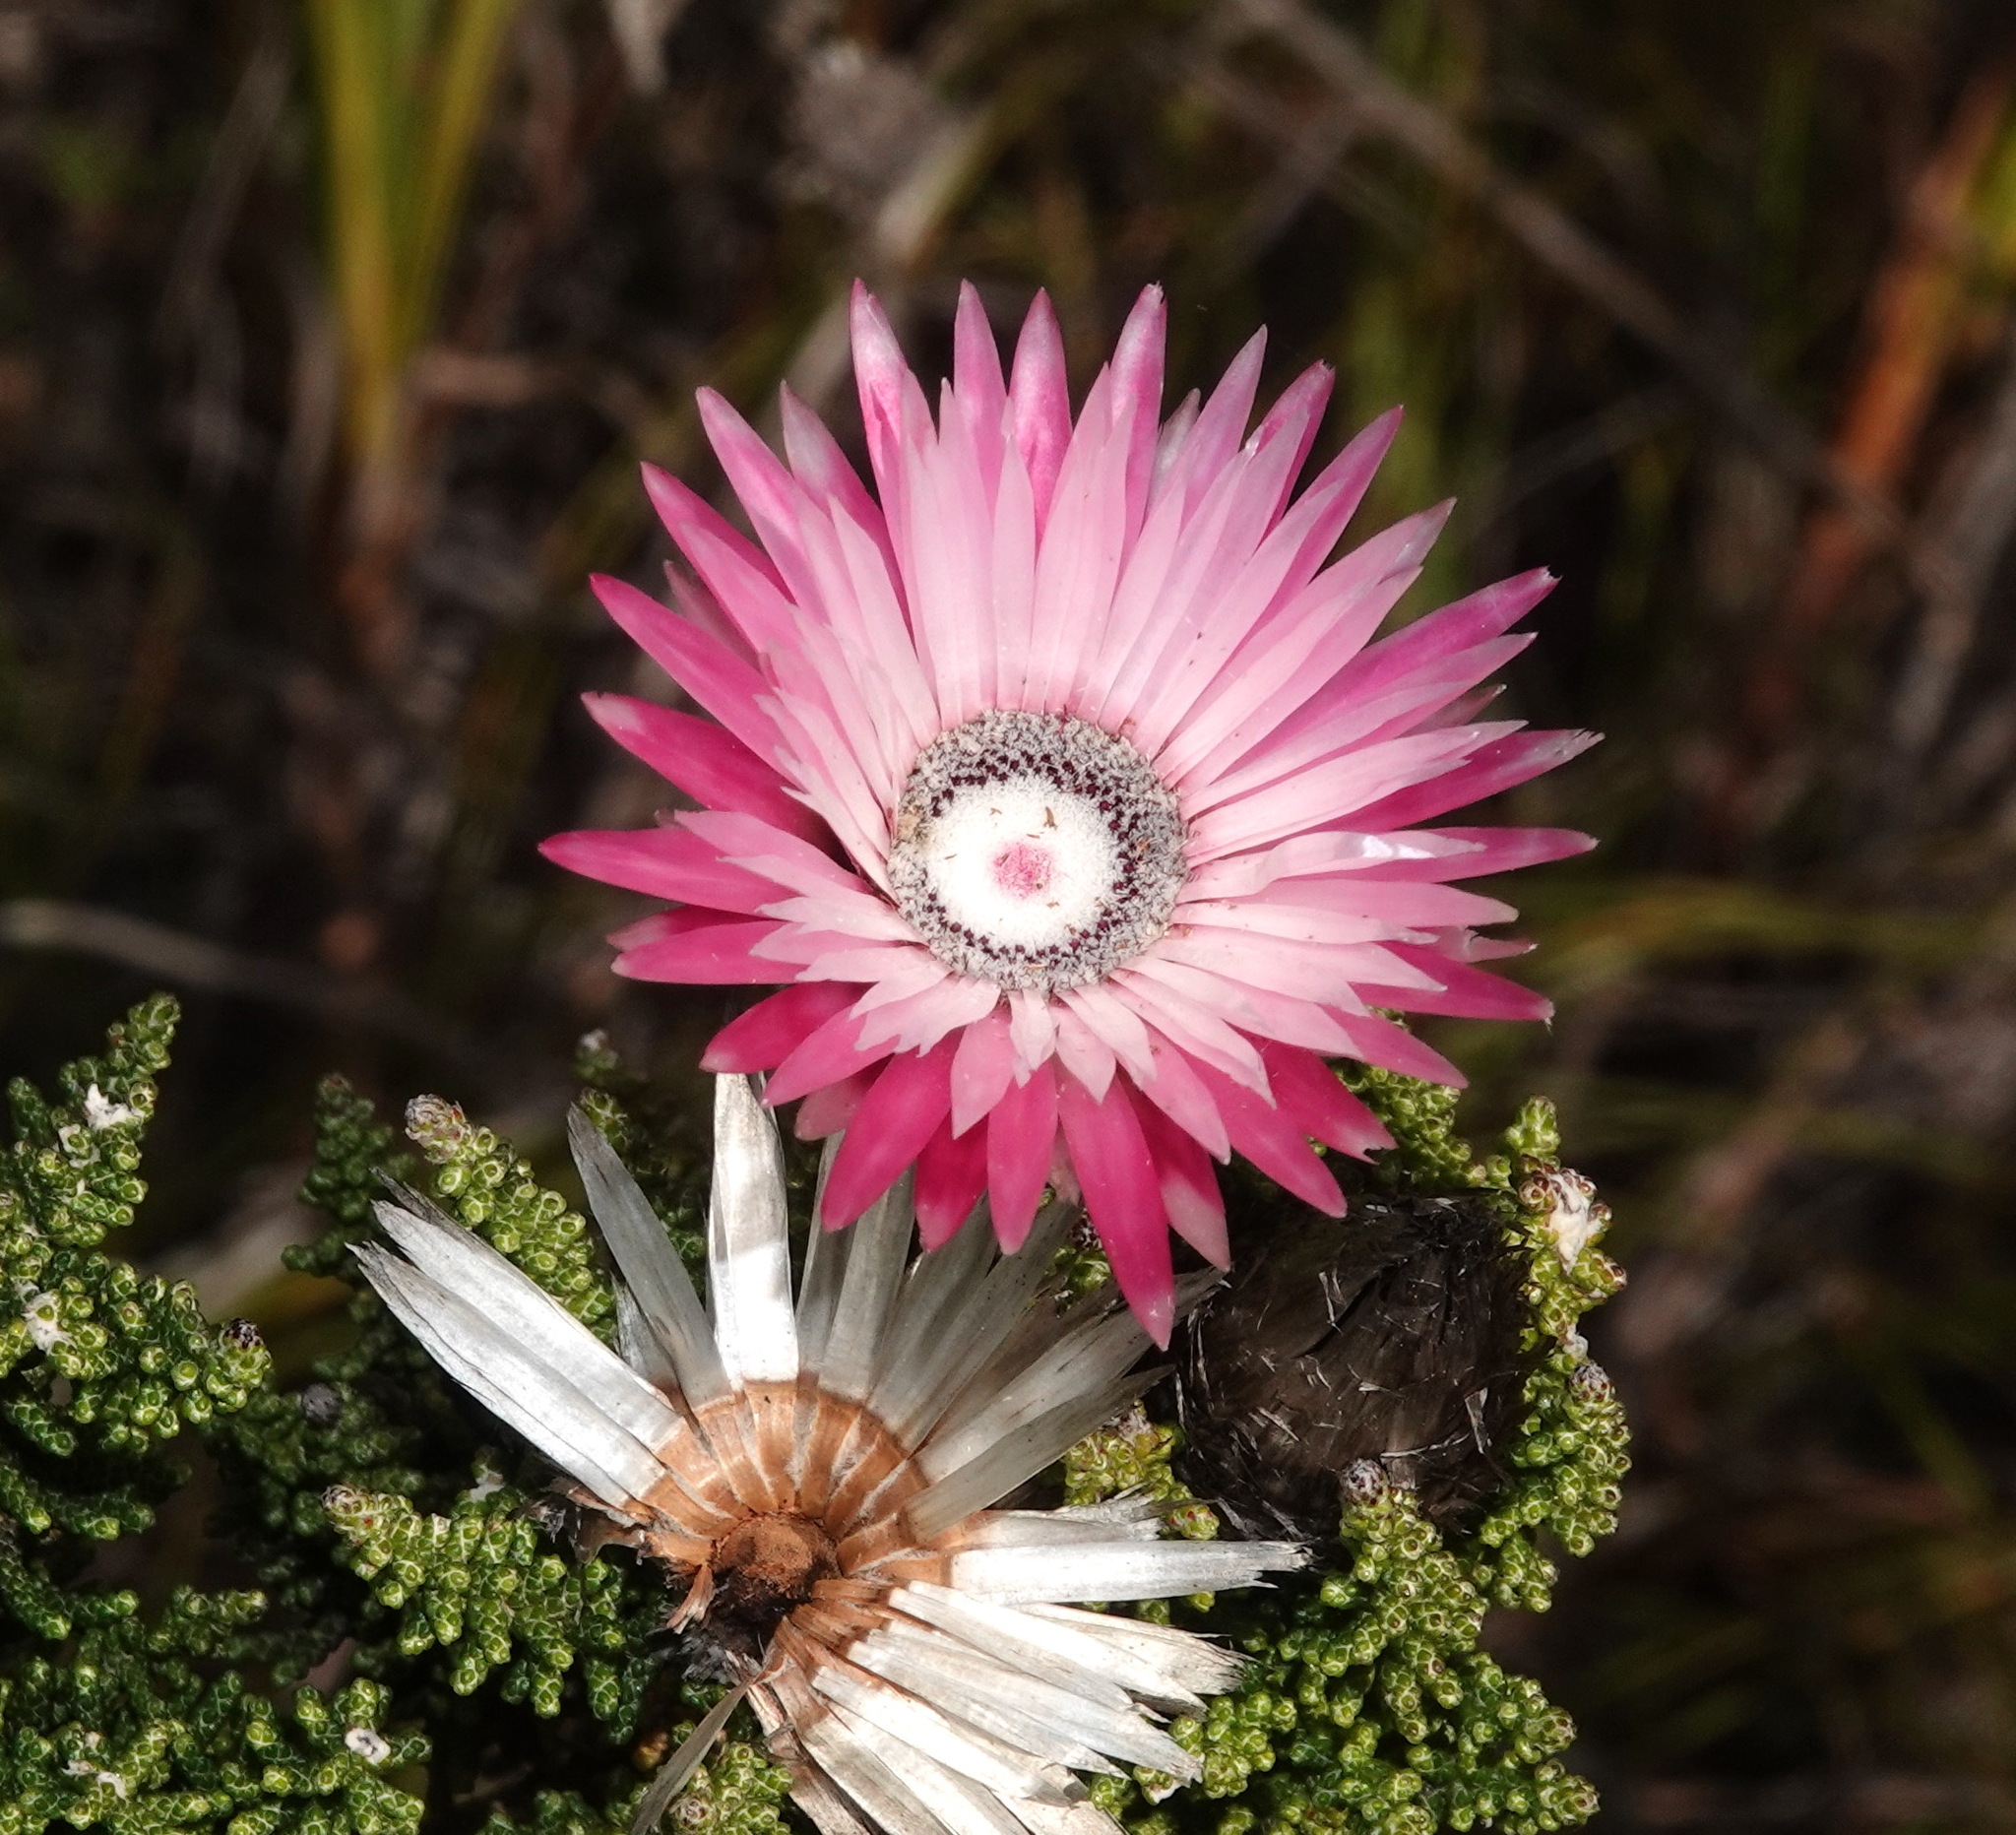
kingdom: Plantae
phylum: Tracheophyta
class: Magnoliopsida
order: Asterales
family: Asteraceae
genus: Phaenocoma
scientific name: Phaenocoma prolifera
